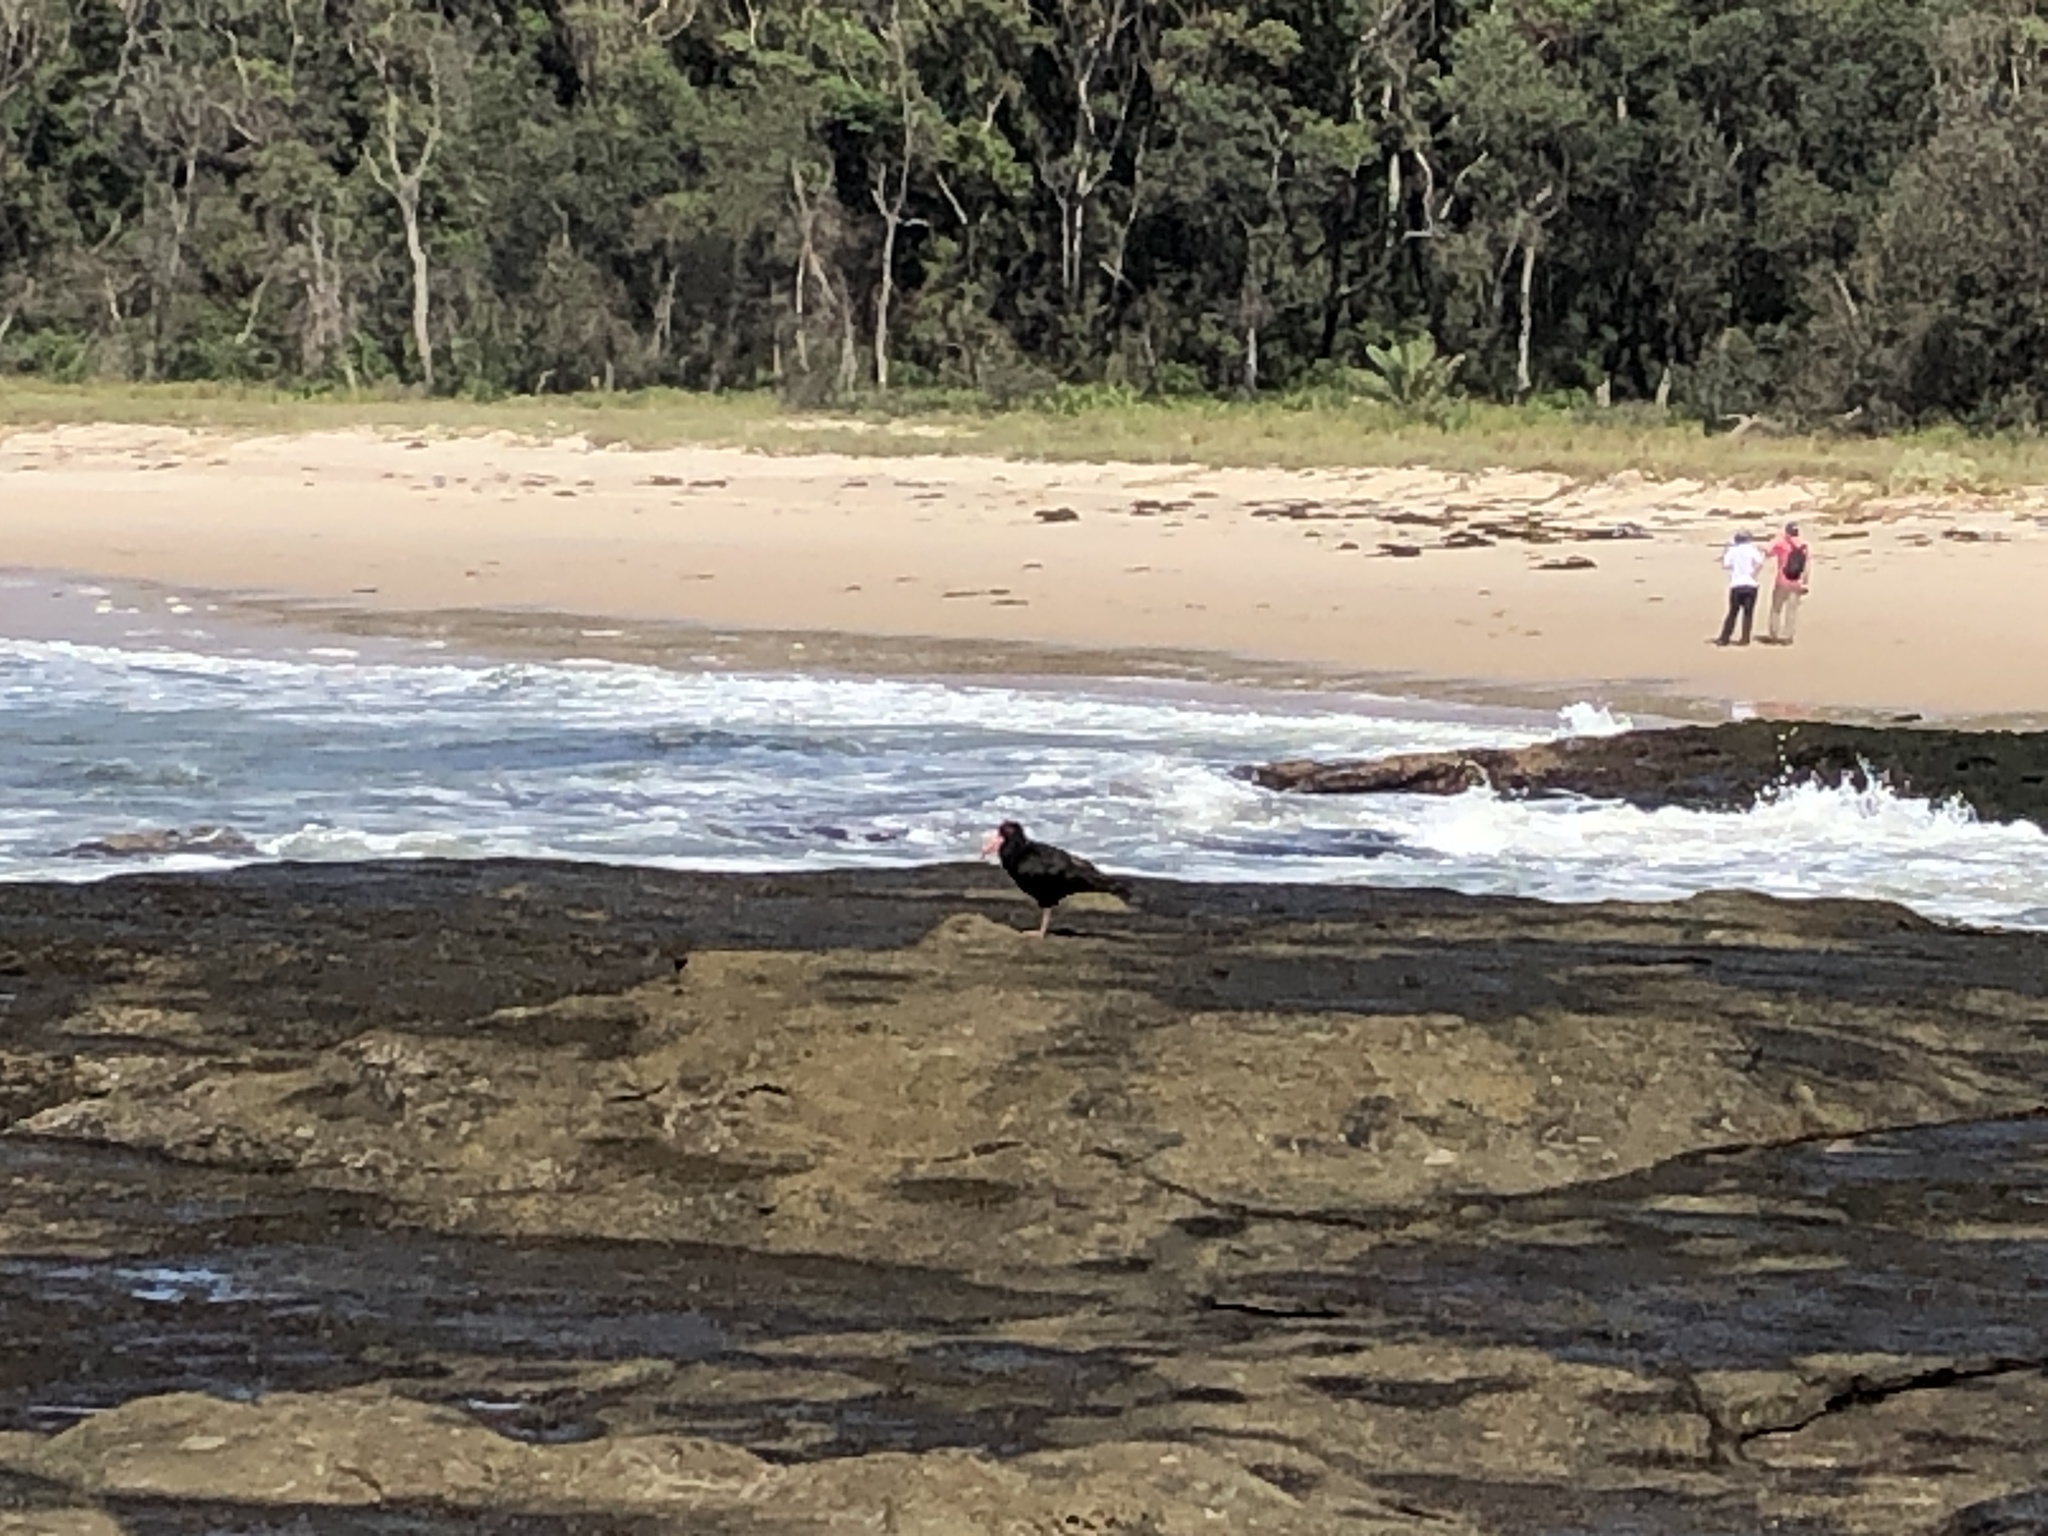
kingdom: Animalia
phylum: Chordata
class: Aves
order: Charadriiformes
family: Haematopodidae
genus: Haematopus
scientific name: Haematopus fuliginosus
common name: Sooty oystercatcher
